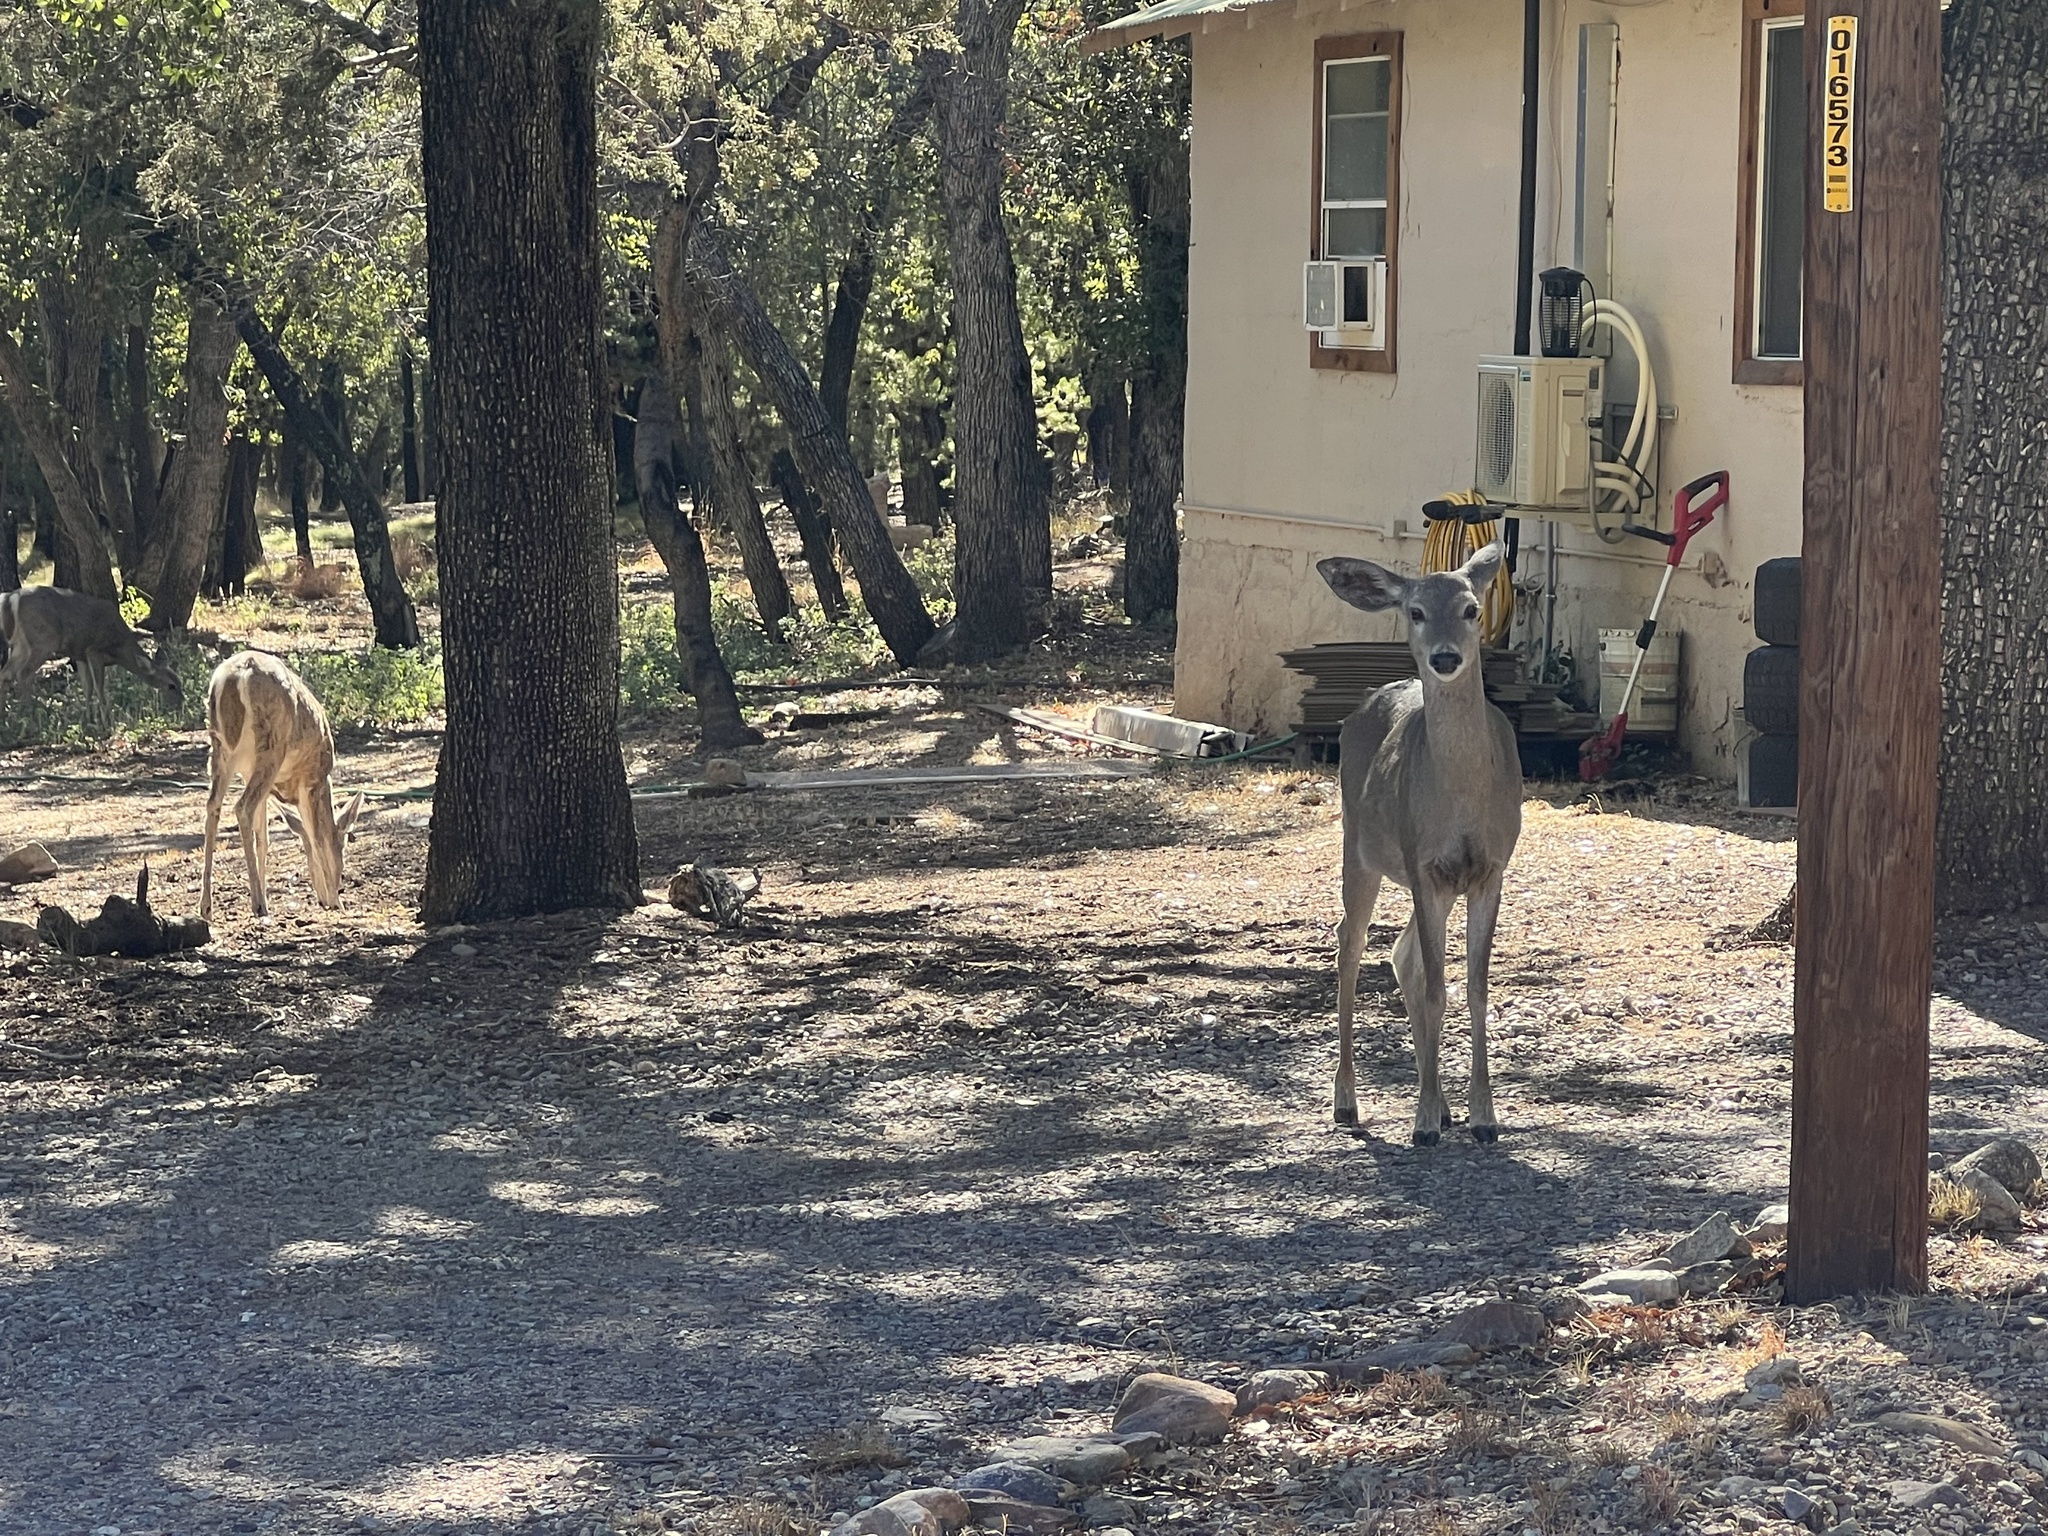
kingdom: Animalia
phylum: Chordata
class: Mammalia
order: Artiodactyla
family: Cervidae
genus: Odocoileus
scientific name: Odocoileus virginianus
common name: White-tailed deer
